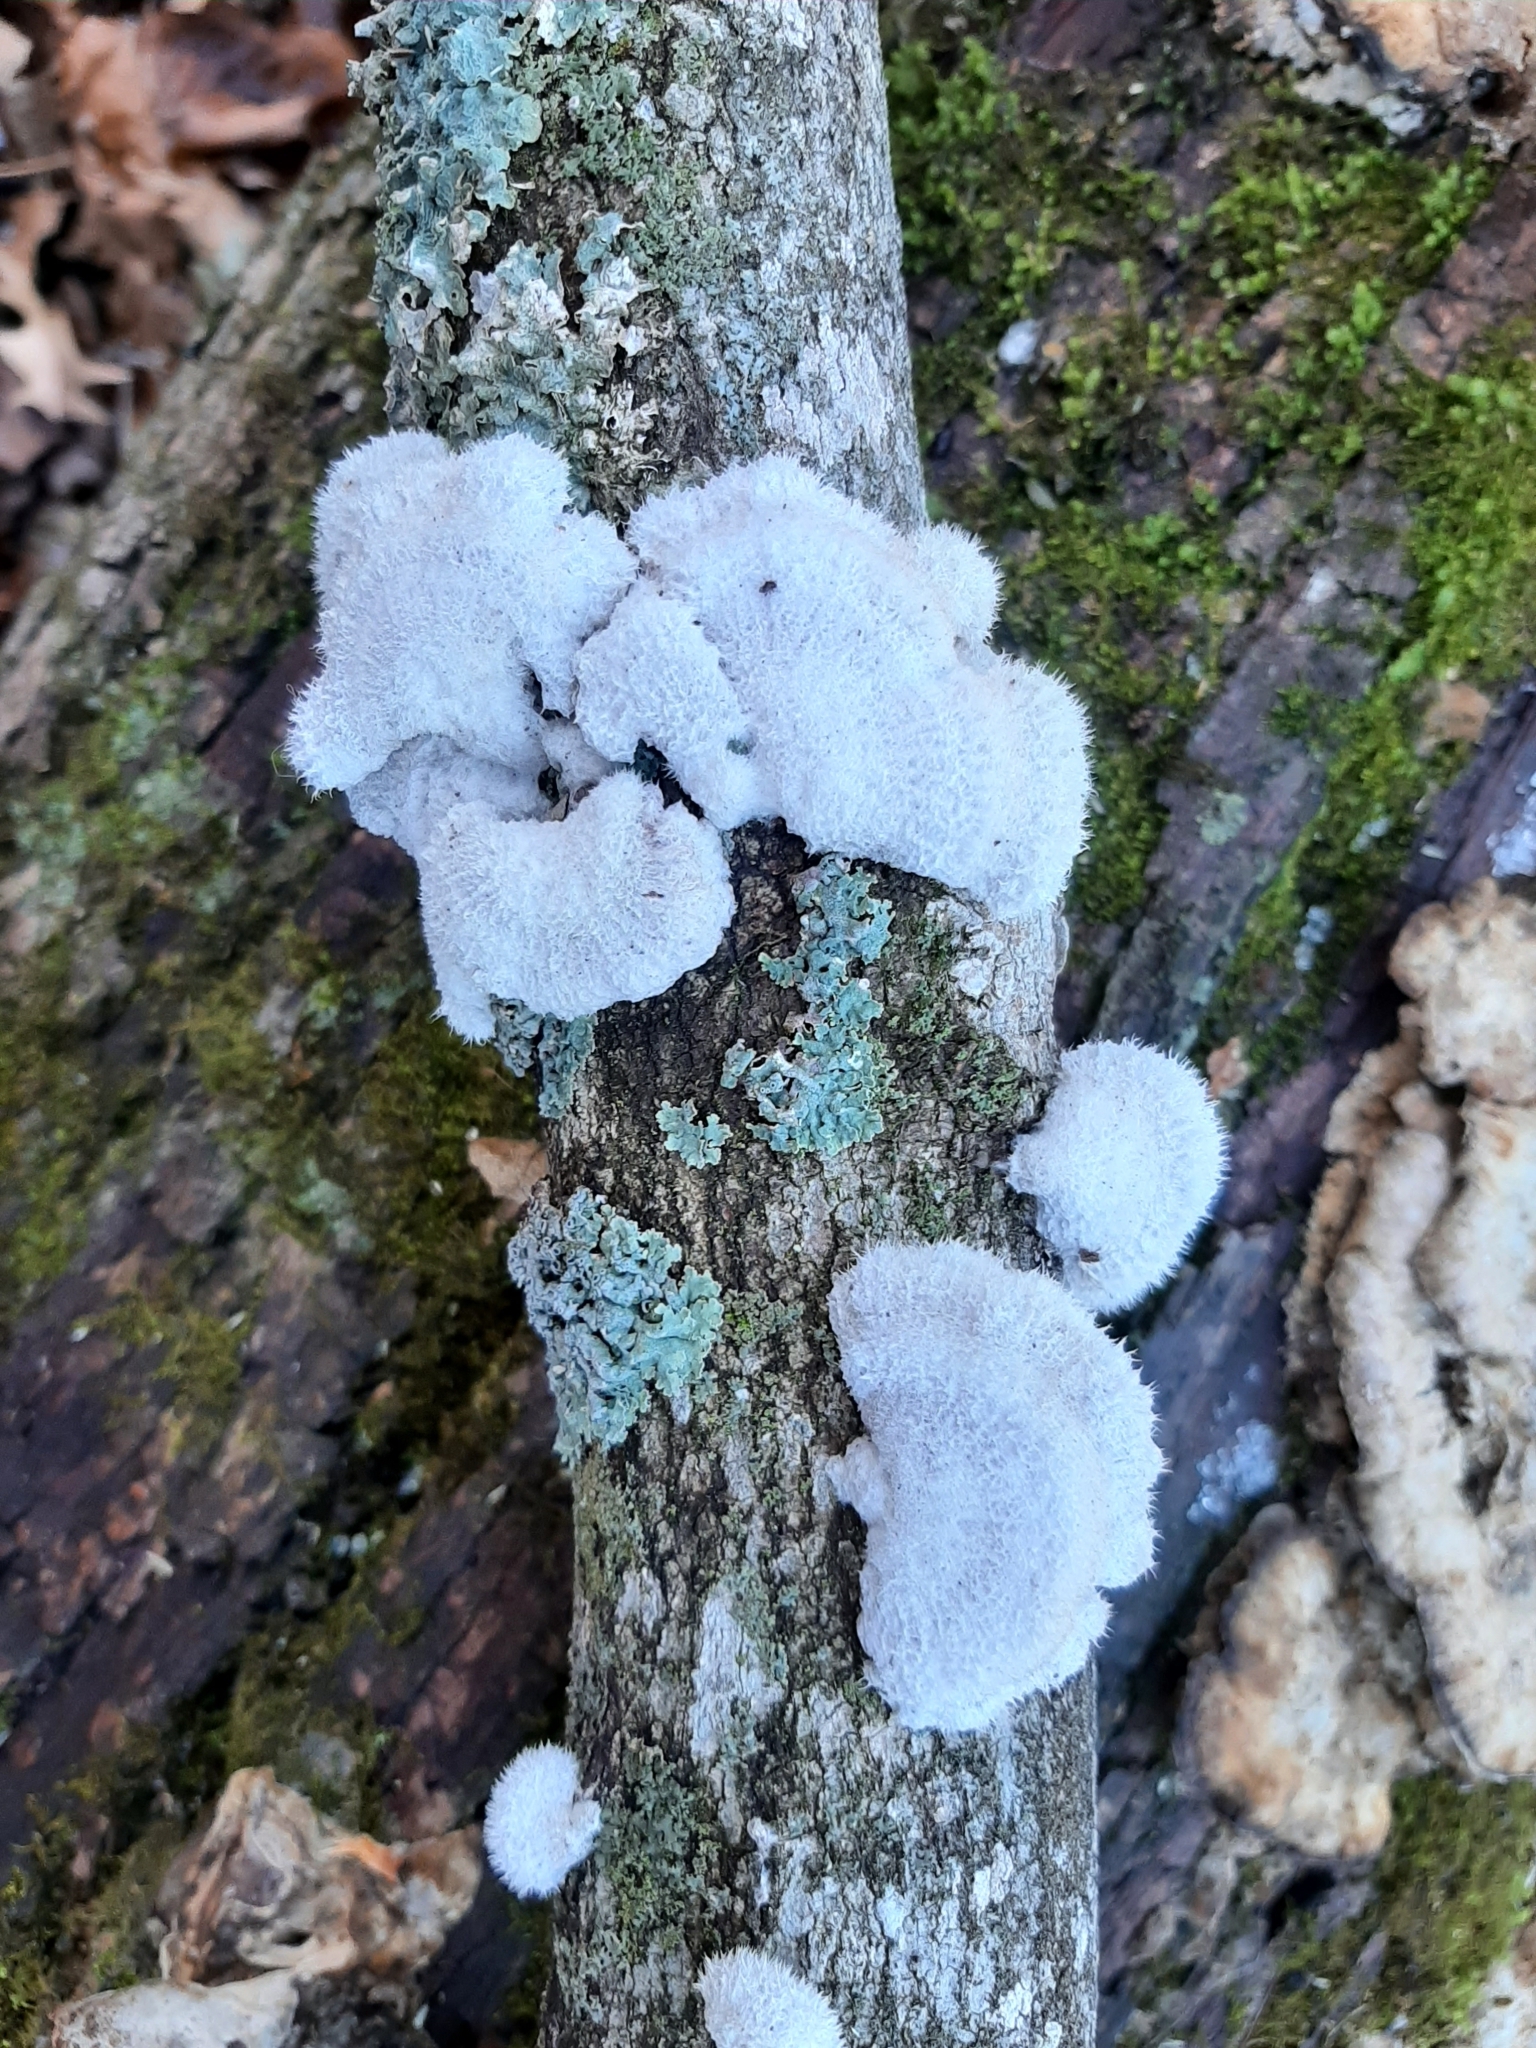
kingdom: Fungi
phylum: Basidiomycota
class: Agaricomycetes
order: Agaricales
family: Schizophyllaceae
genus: Schizophyllum
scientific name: Schizophyllum commune
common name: Common porecrust
